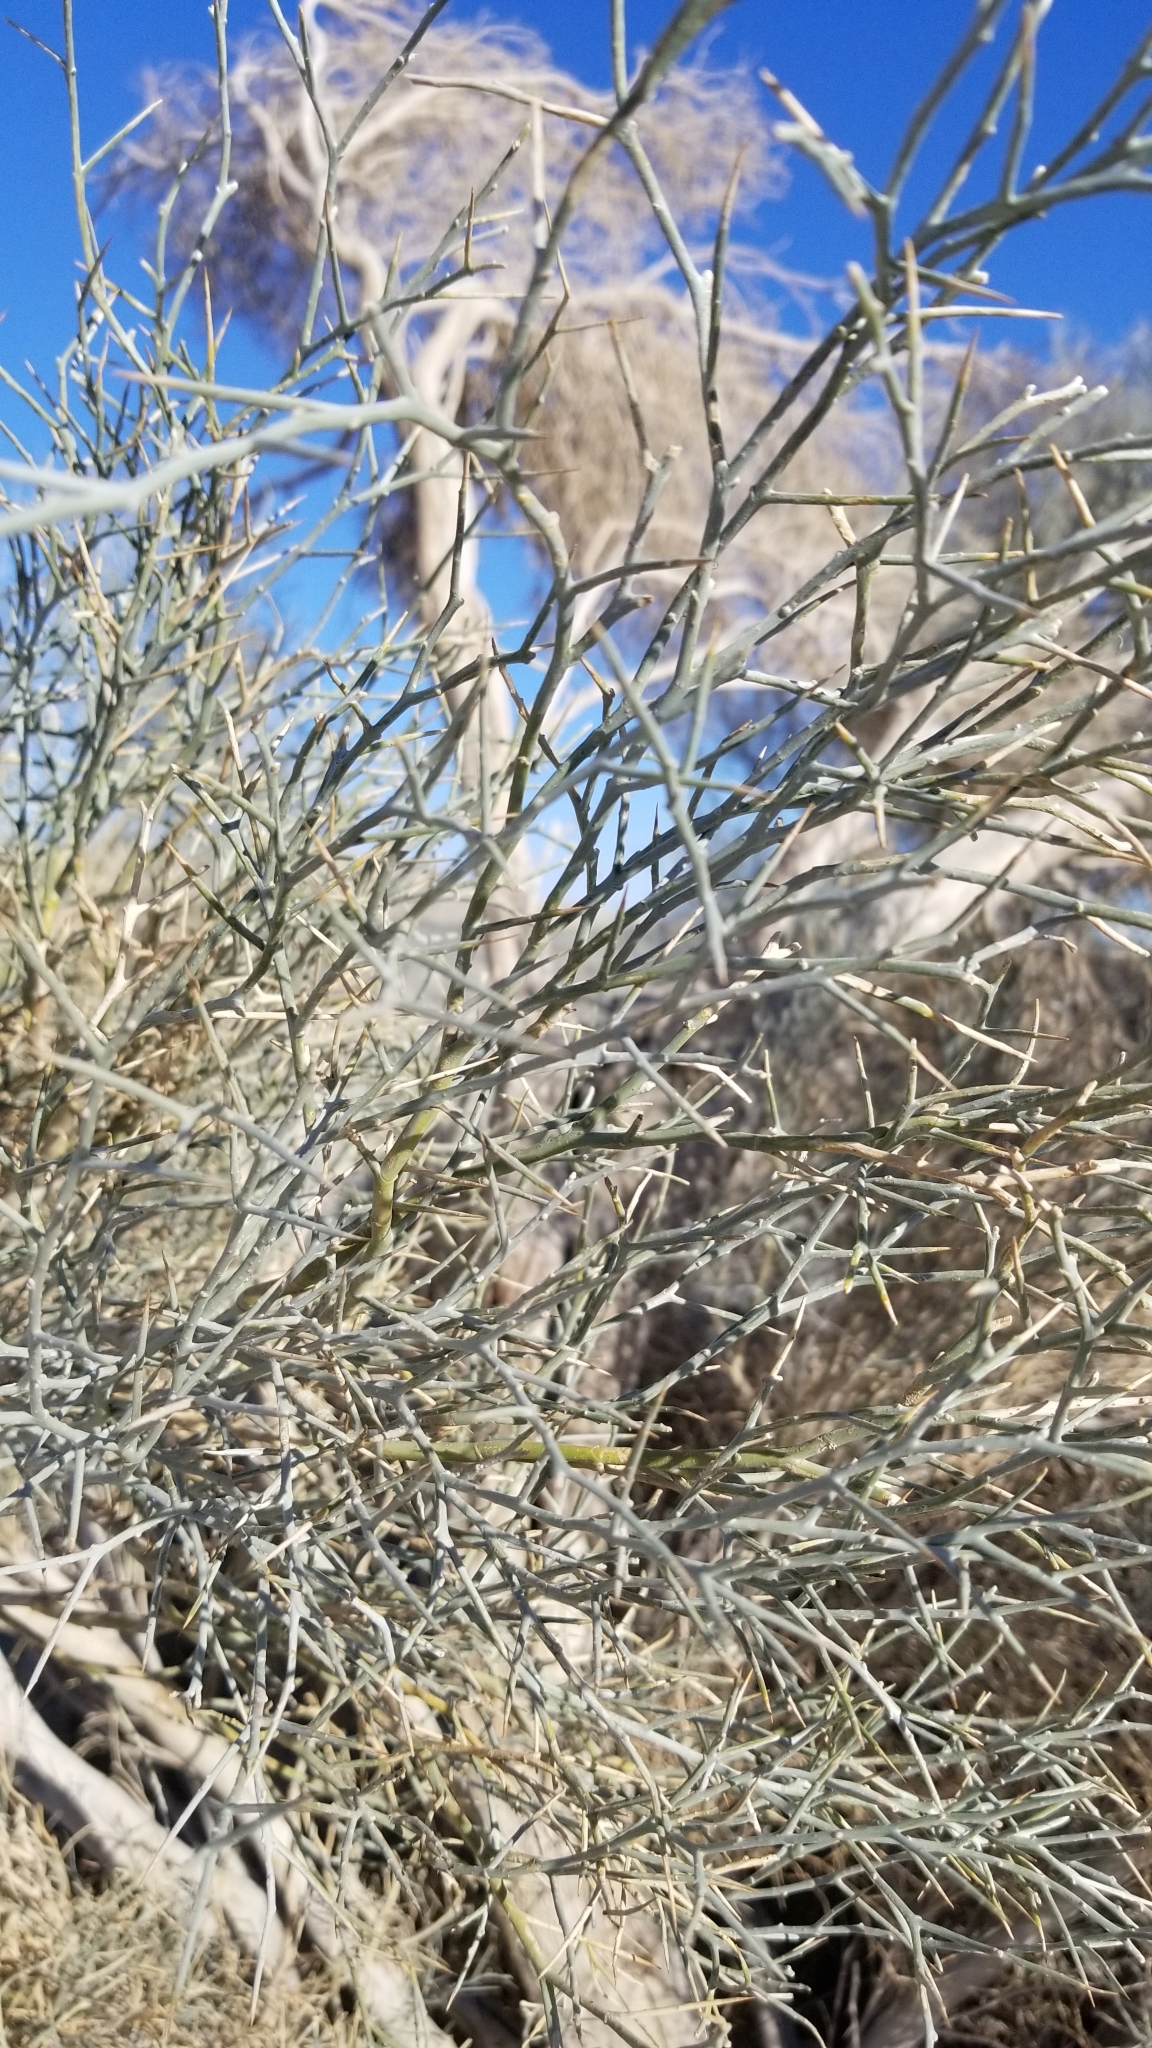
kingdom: Plantae
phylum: Tracheophyta
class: Magnoliopsida
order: Fabales
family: Fabaceae
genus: Psorothamnus
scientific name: Psorothamnus spinosus
